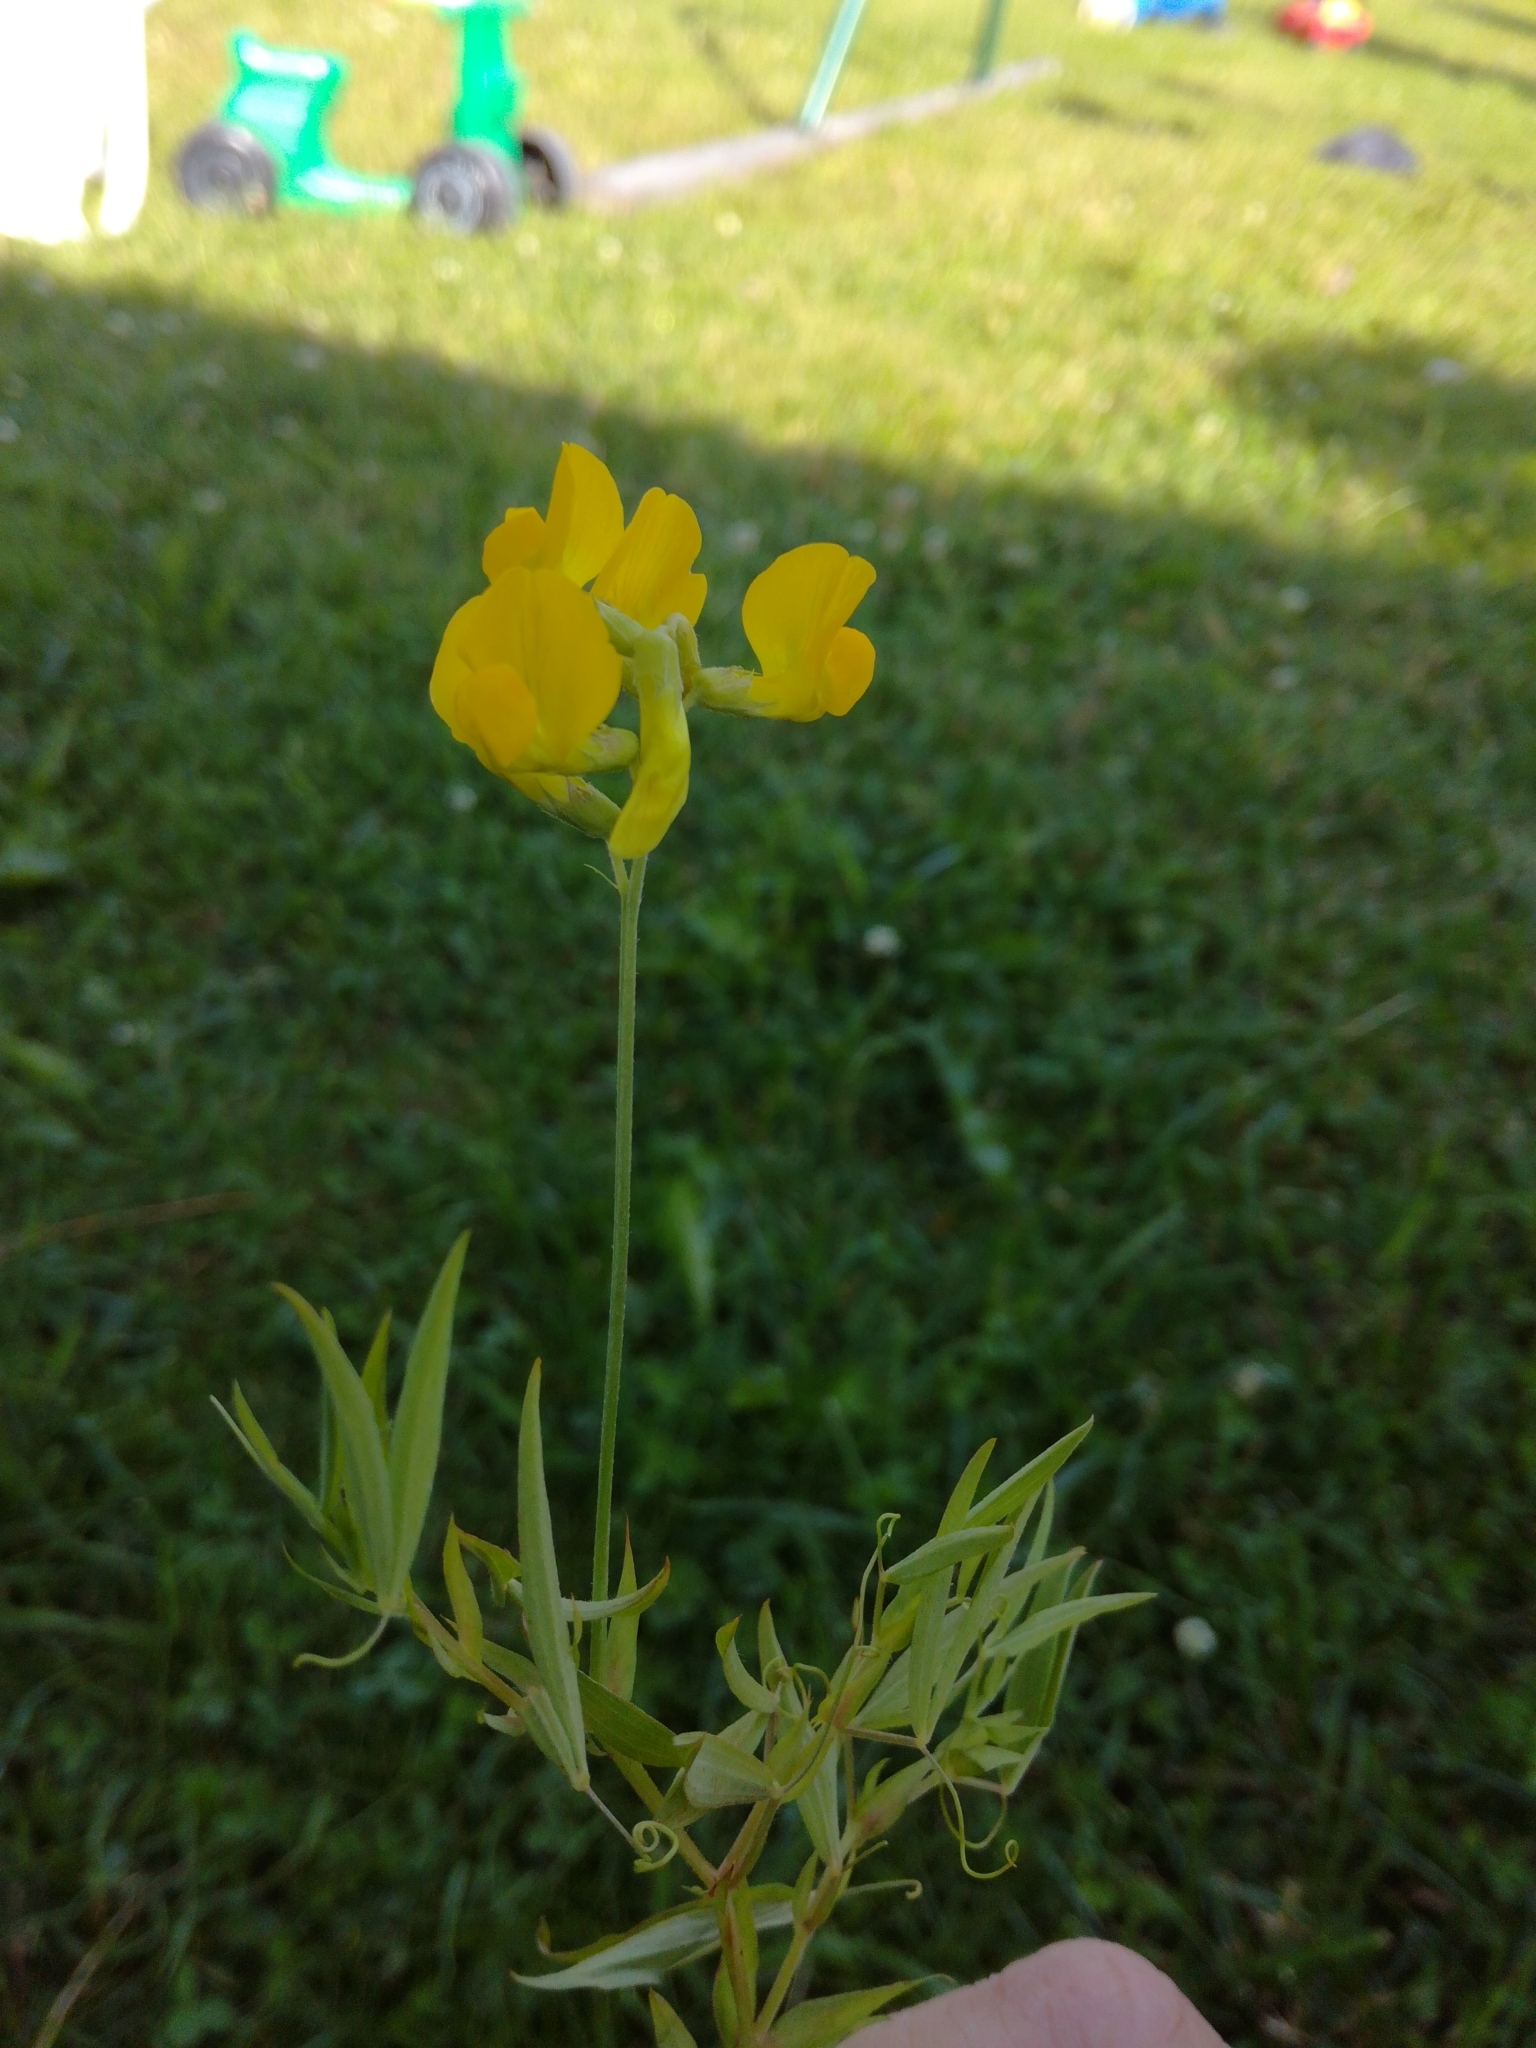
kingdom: Plantae
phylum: Tracheophyta
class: Magnoliopsida
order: Fabales
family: Fabaceae
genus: Lathyrus
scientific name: Lathyrus pratensis
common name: Meadow vetchling
